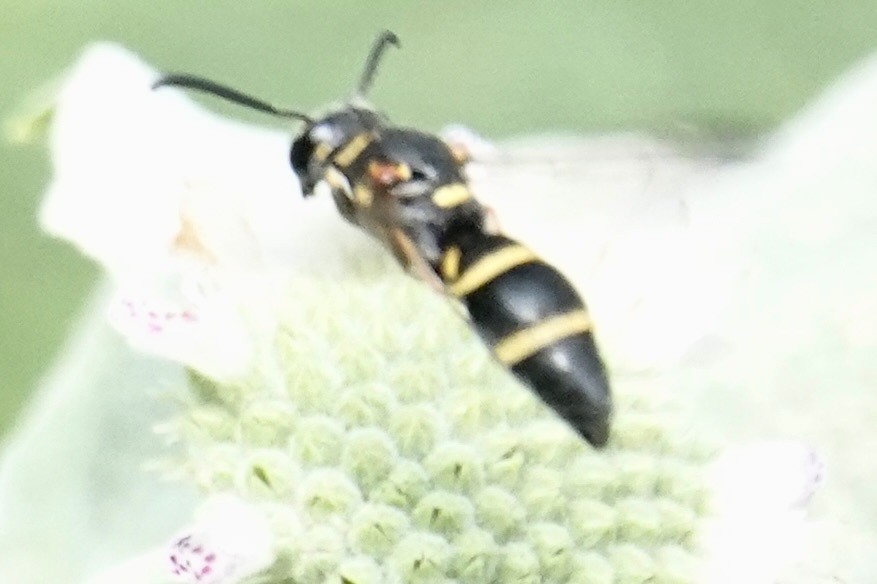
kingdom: Animalia
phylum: Arthropoda
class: Insecta
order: Hymenoptera
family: Eumenidae
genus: Parancistrocerus
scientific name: Parancistrocerus fulvipes
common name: Potter wasp
